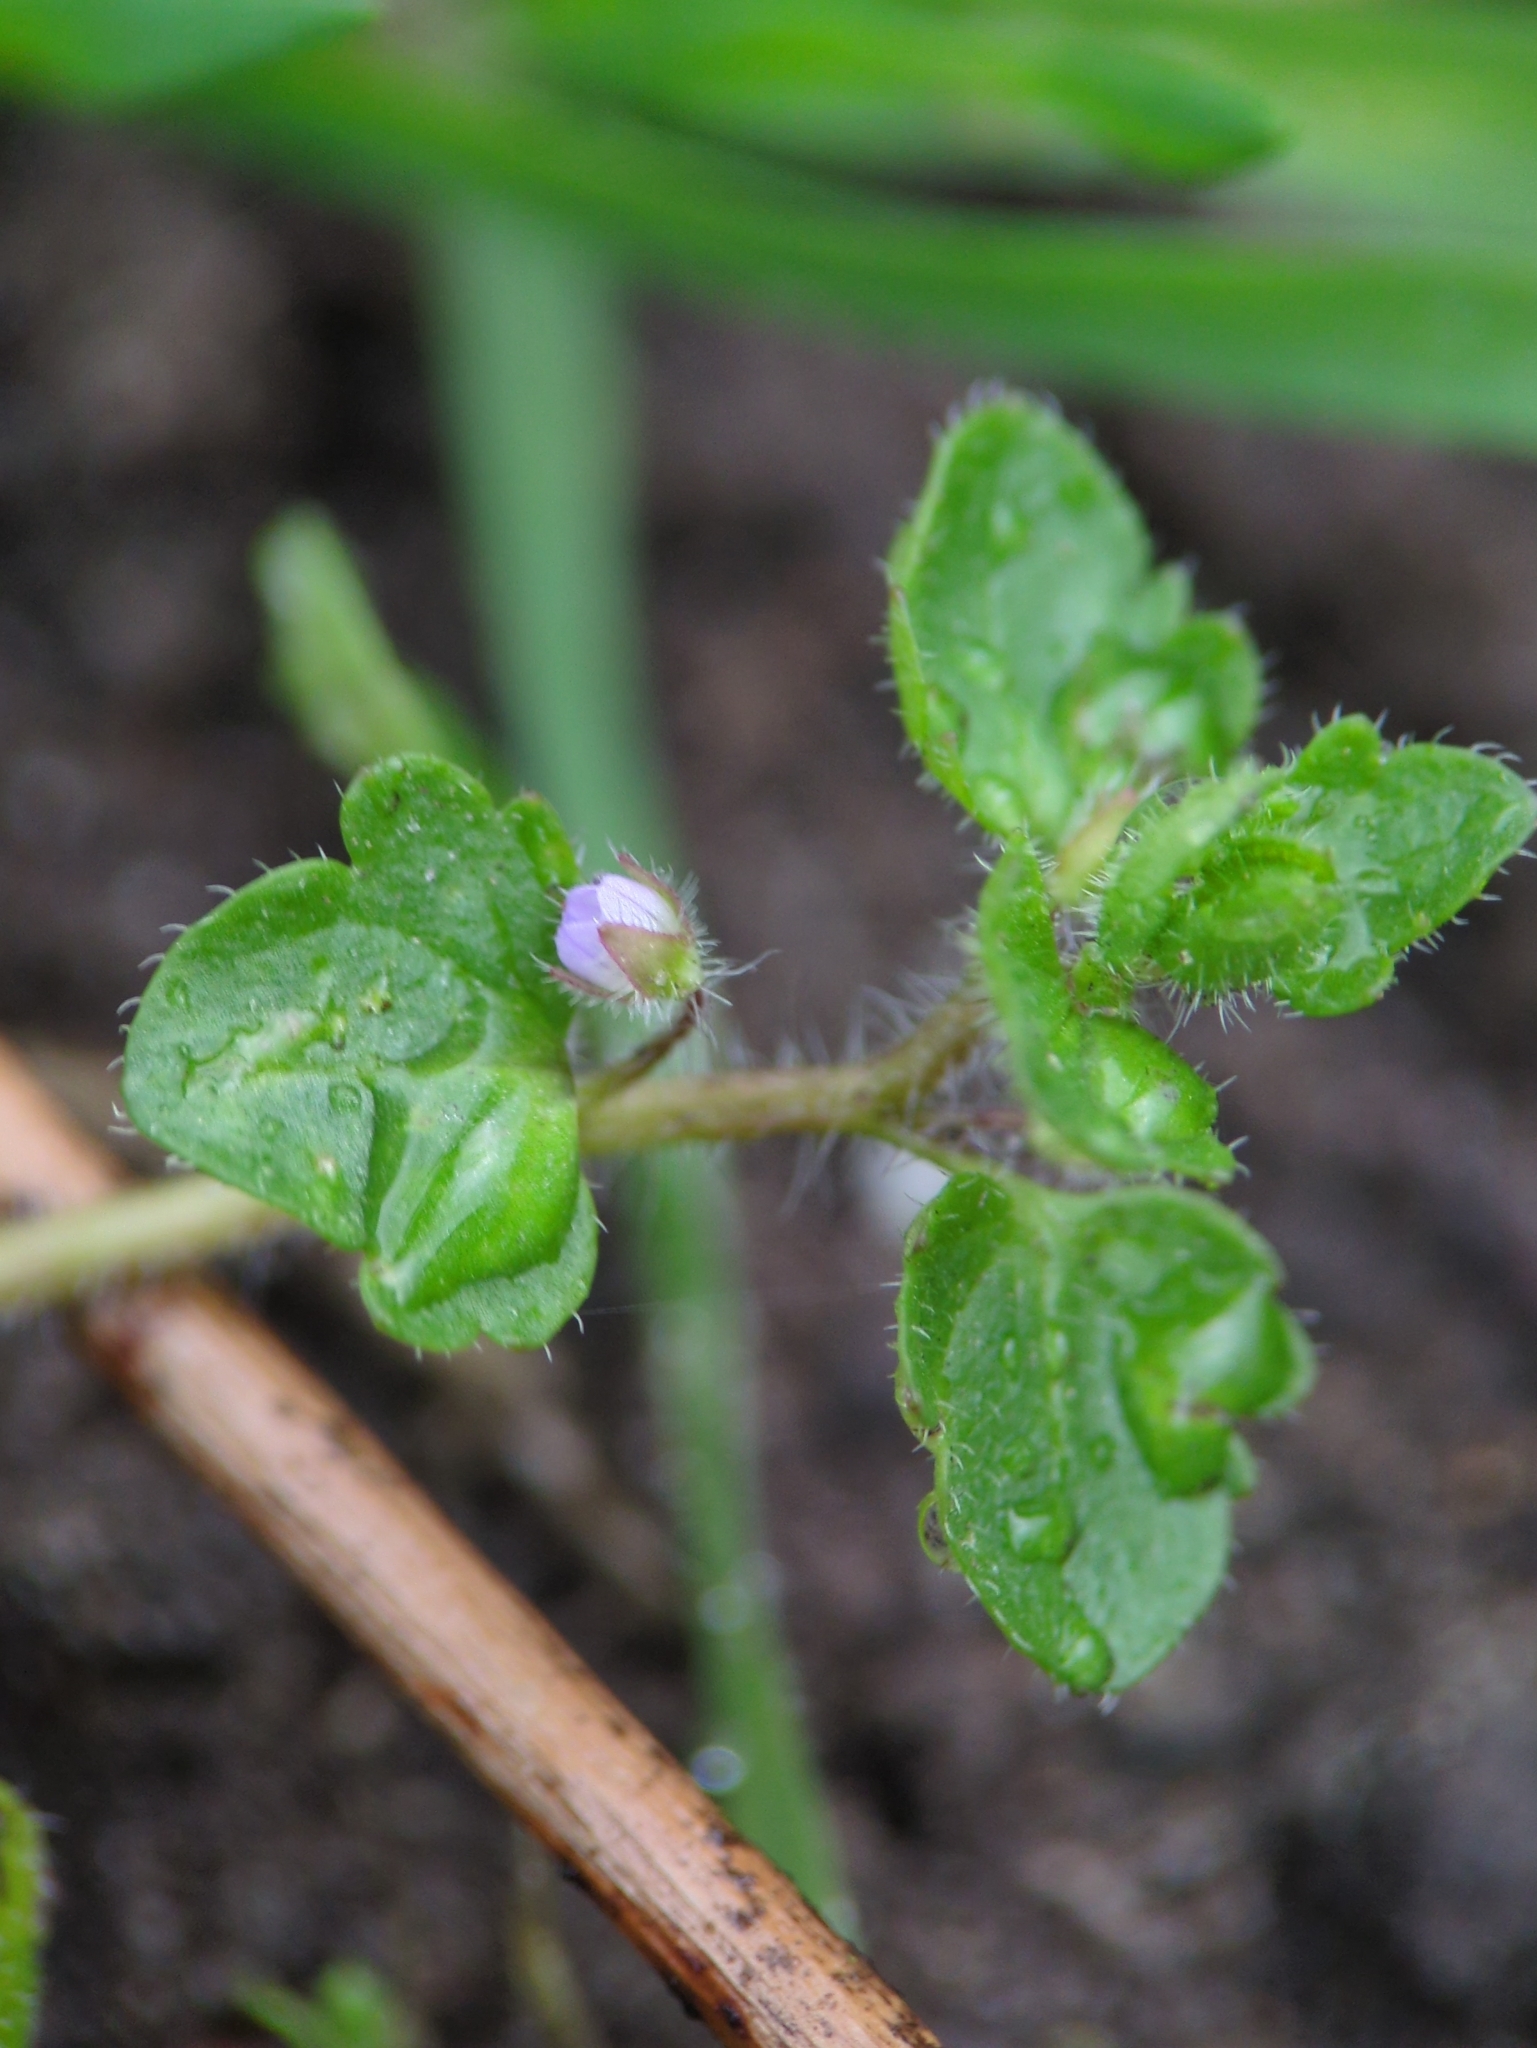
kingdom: Plantae
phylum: Tracheophyta
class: Magnoliopsida
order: Lamiales
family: Plantaginaceae
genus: Veronica
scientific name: Veronica sublobata
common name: False ivy-leaved speedwell
